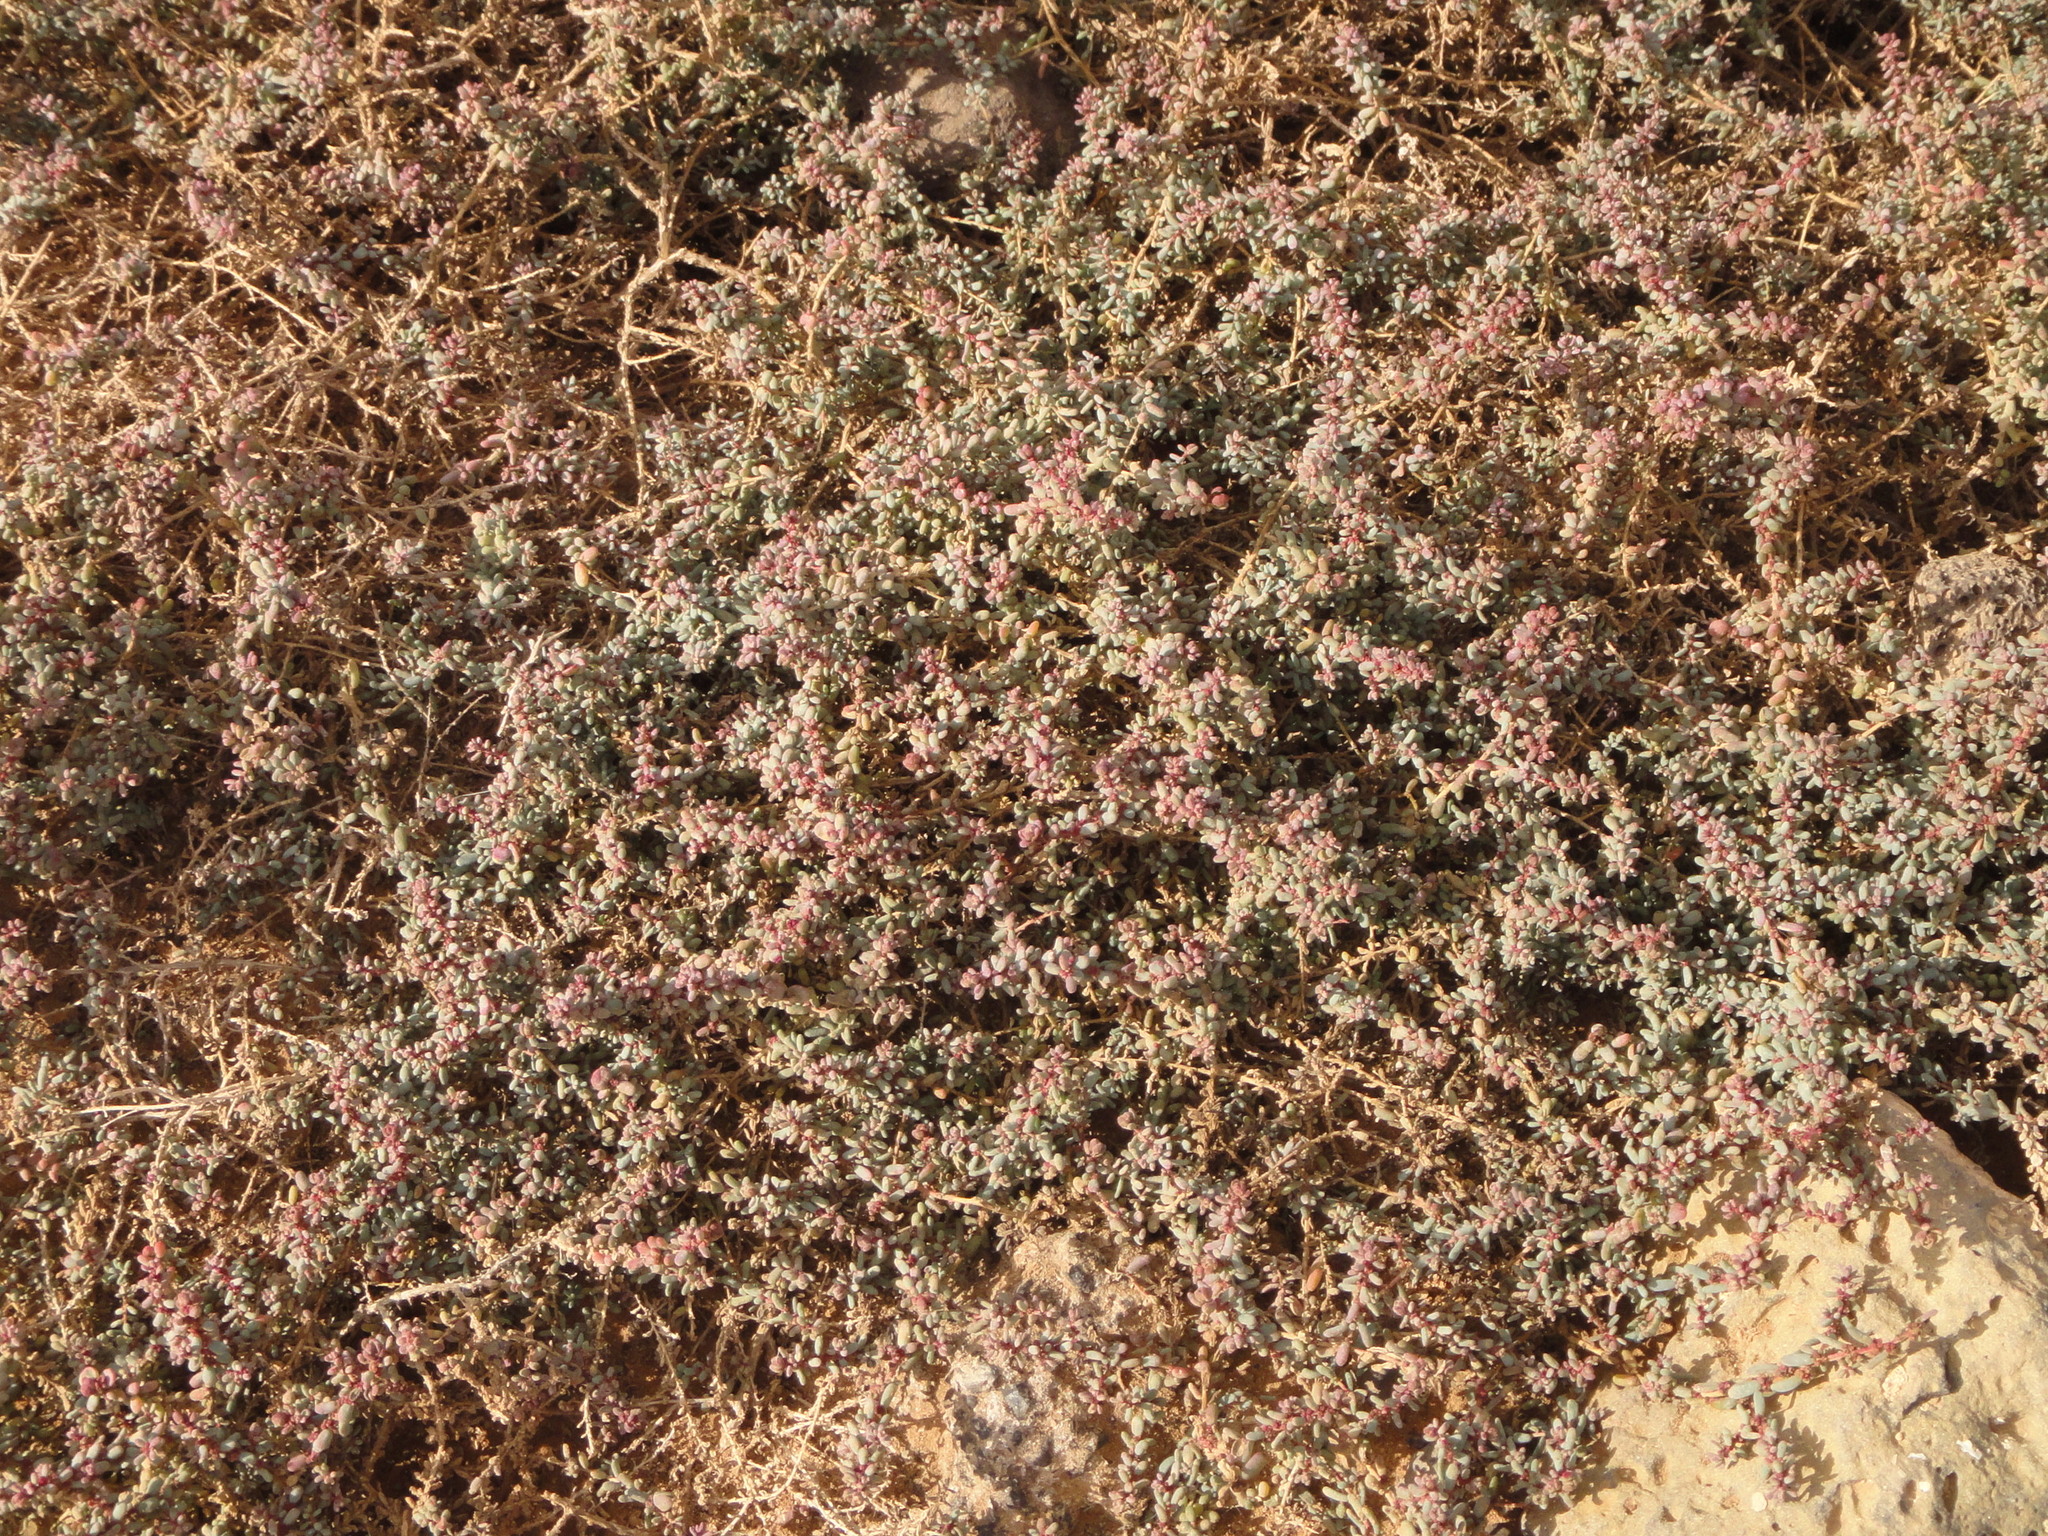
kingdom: Plantae
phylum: Tracheophyta
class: Magnoliopsida
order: Caryophyllales
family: Amaranthaceae
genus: Suaeda
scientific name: Suaeda vermiculata
